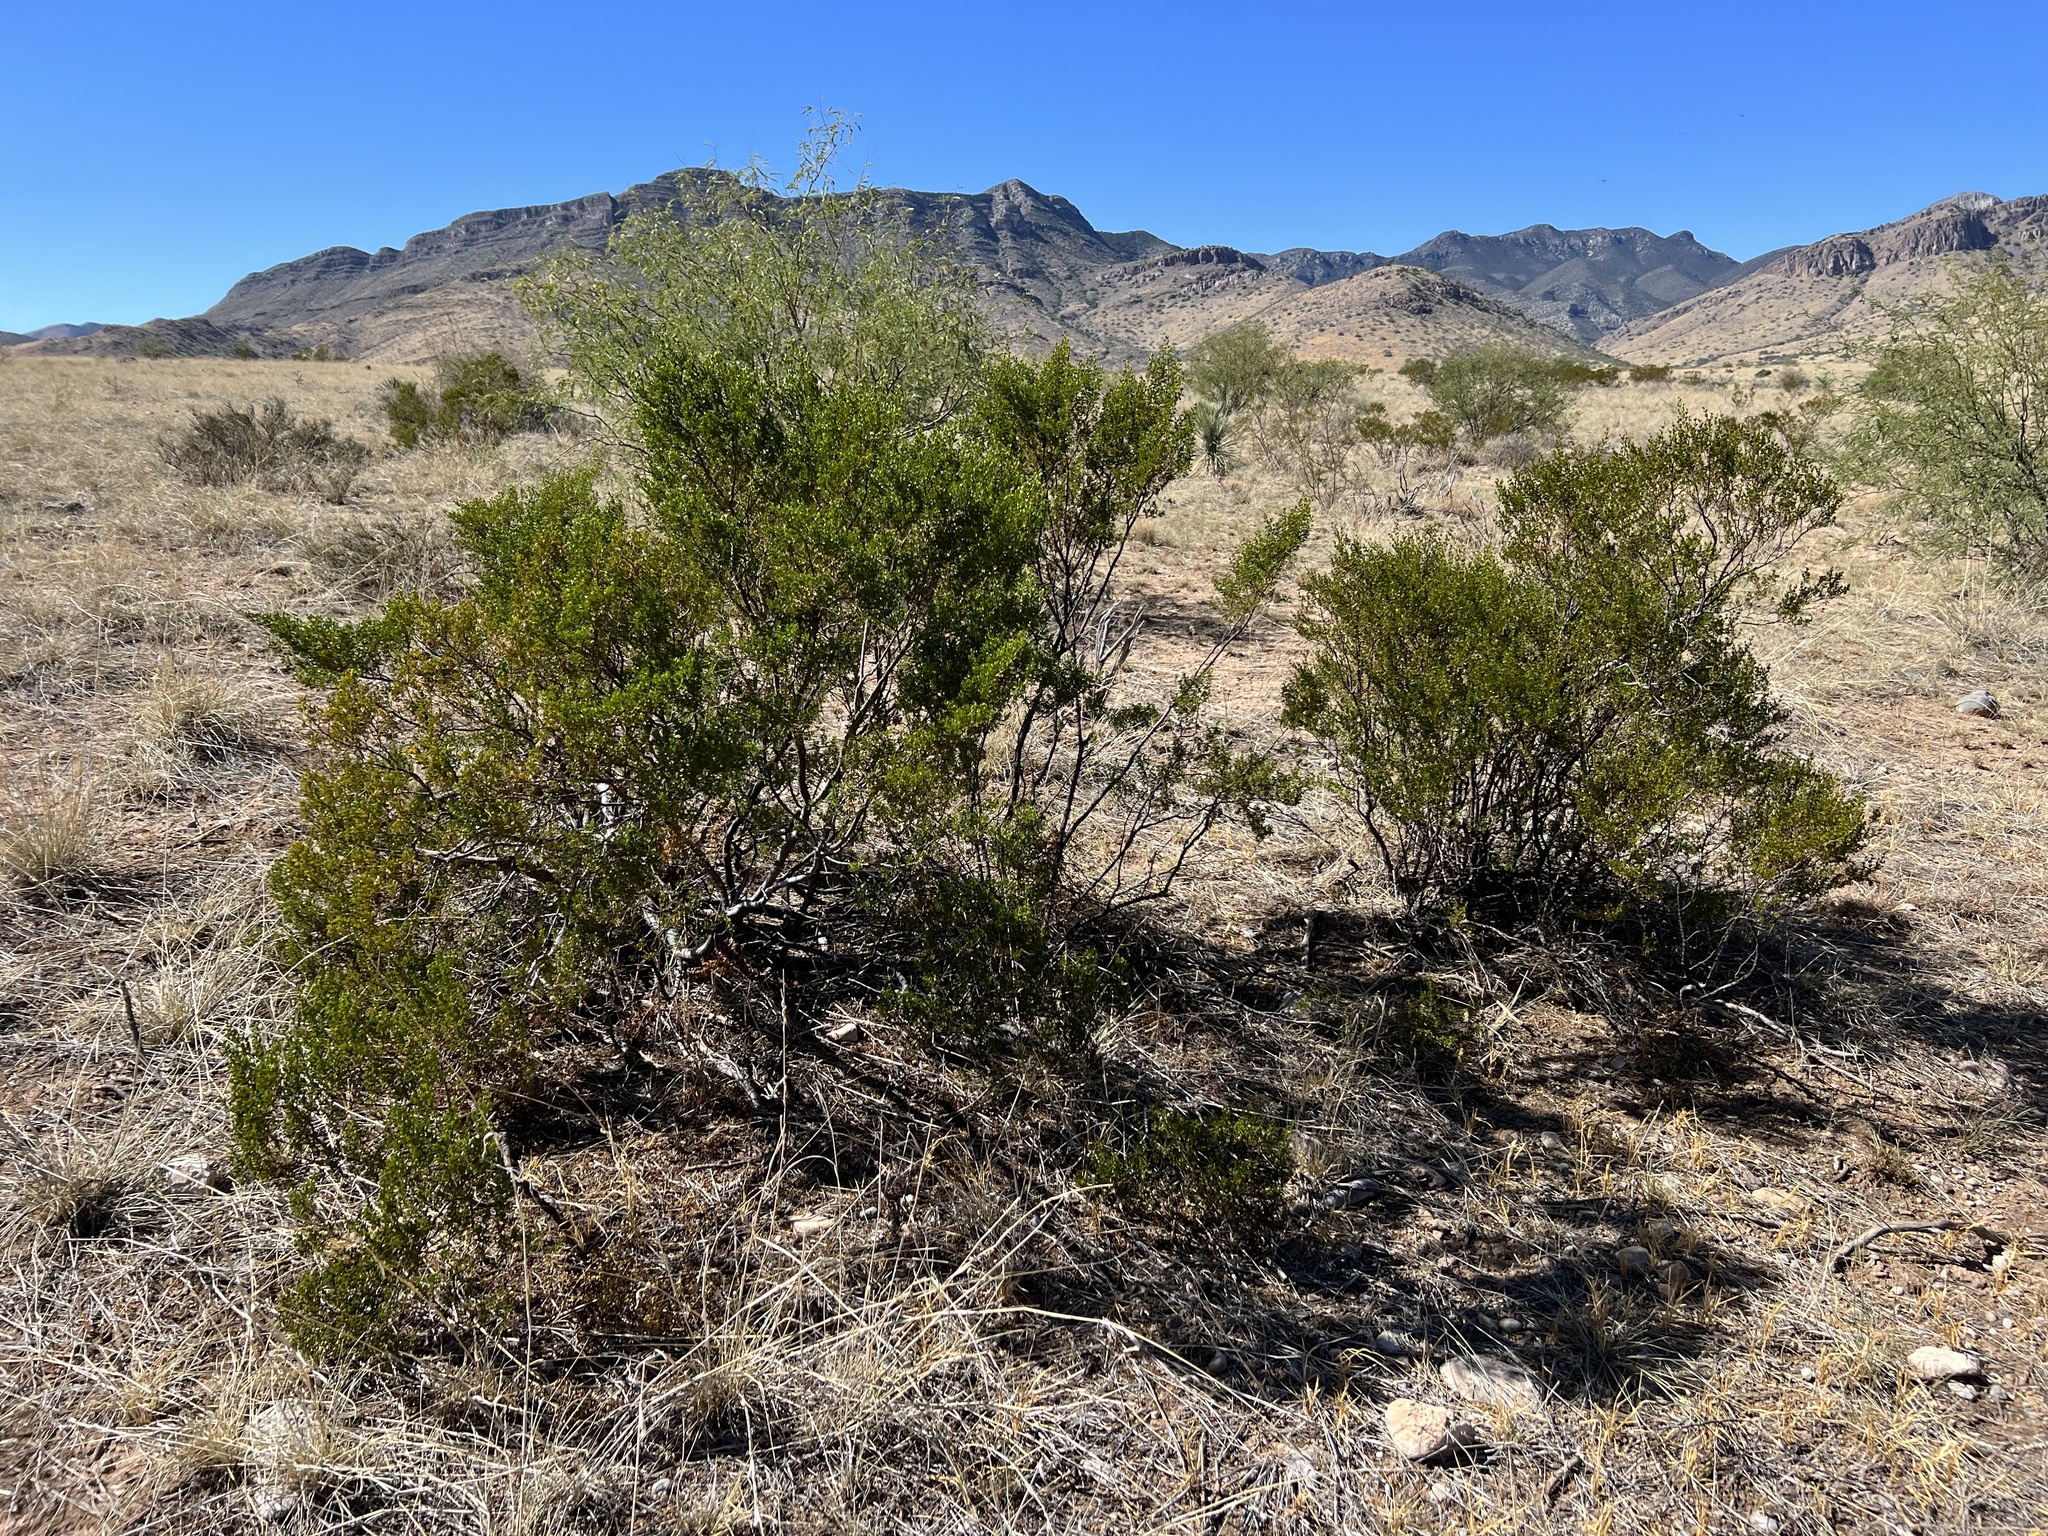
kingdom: Plantae
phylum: Tracheophyta
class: Magnoliopsida
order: Zygophyllales
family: Zygophyllaceae
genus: Larrea
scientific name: Larrea tridentata
